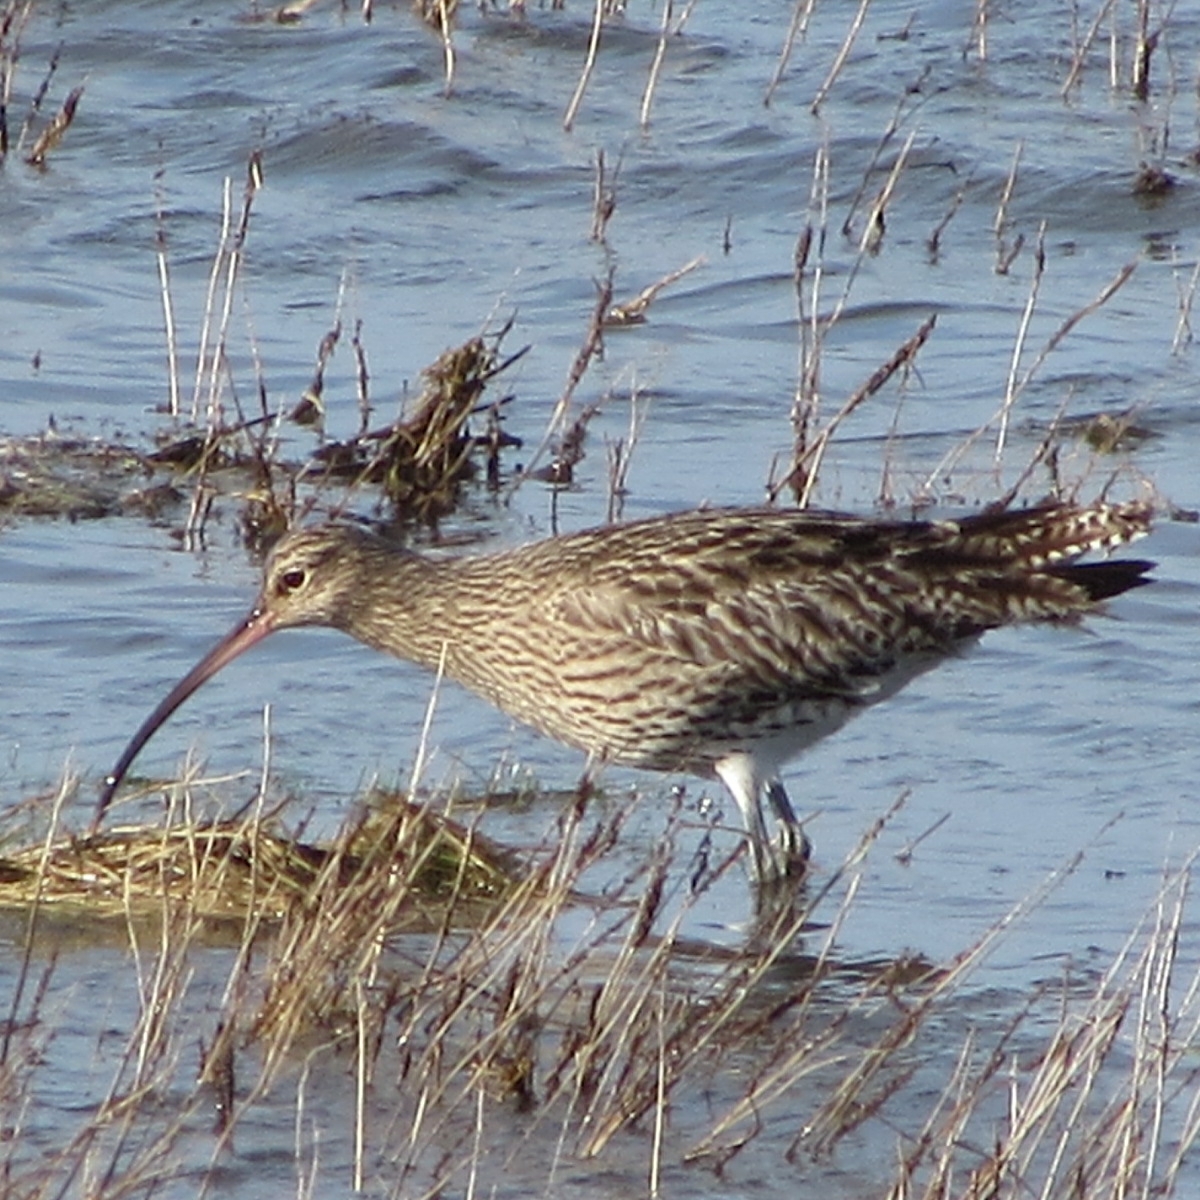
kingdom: Animalia
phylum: Chordata
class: Aves
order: Charadriiformes
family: Scolopacidae
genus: Numenius
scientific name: Numenius arquata
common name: Eurasian curlew
